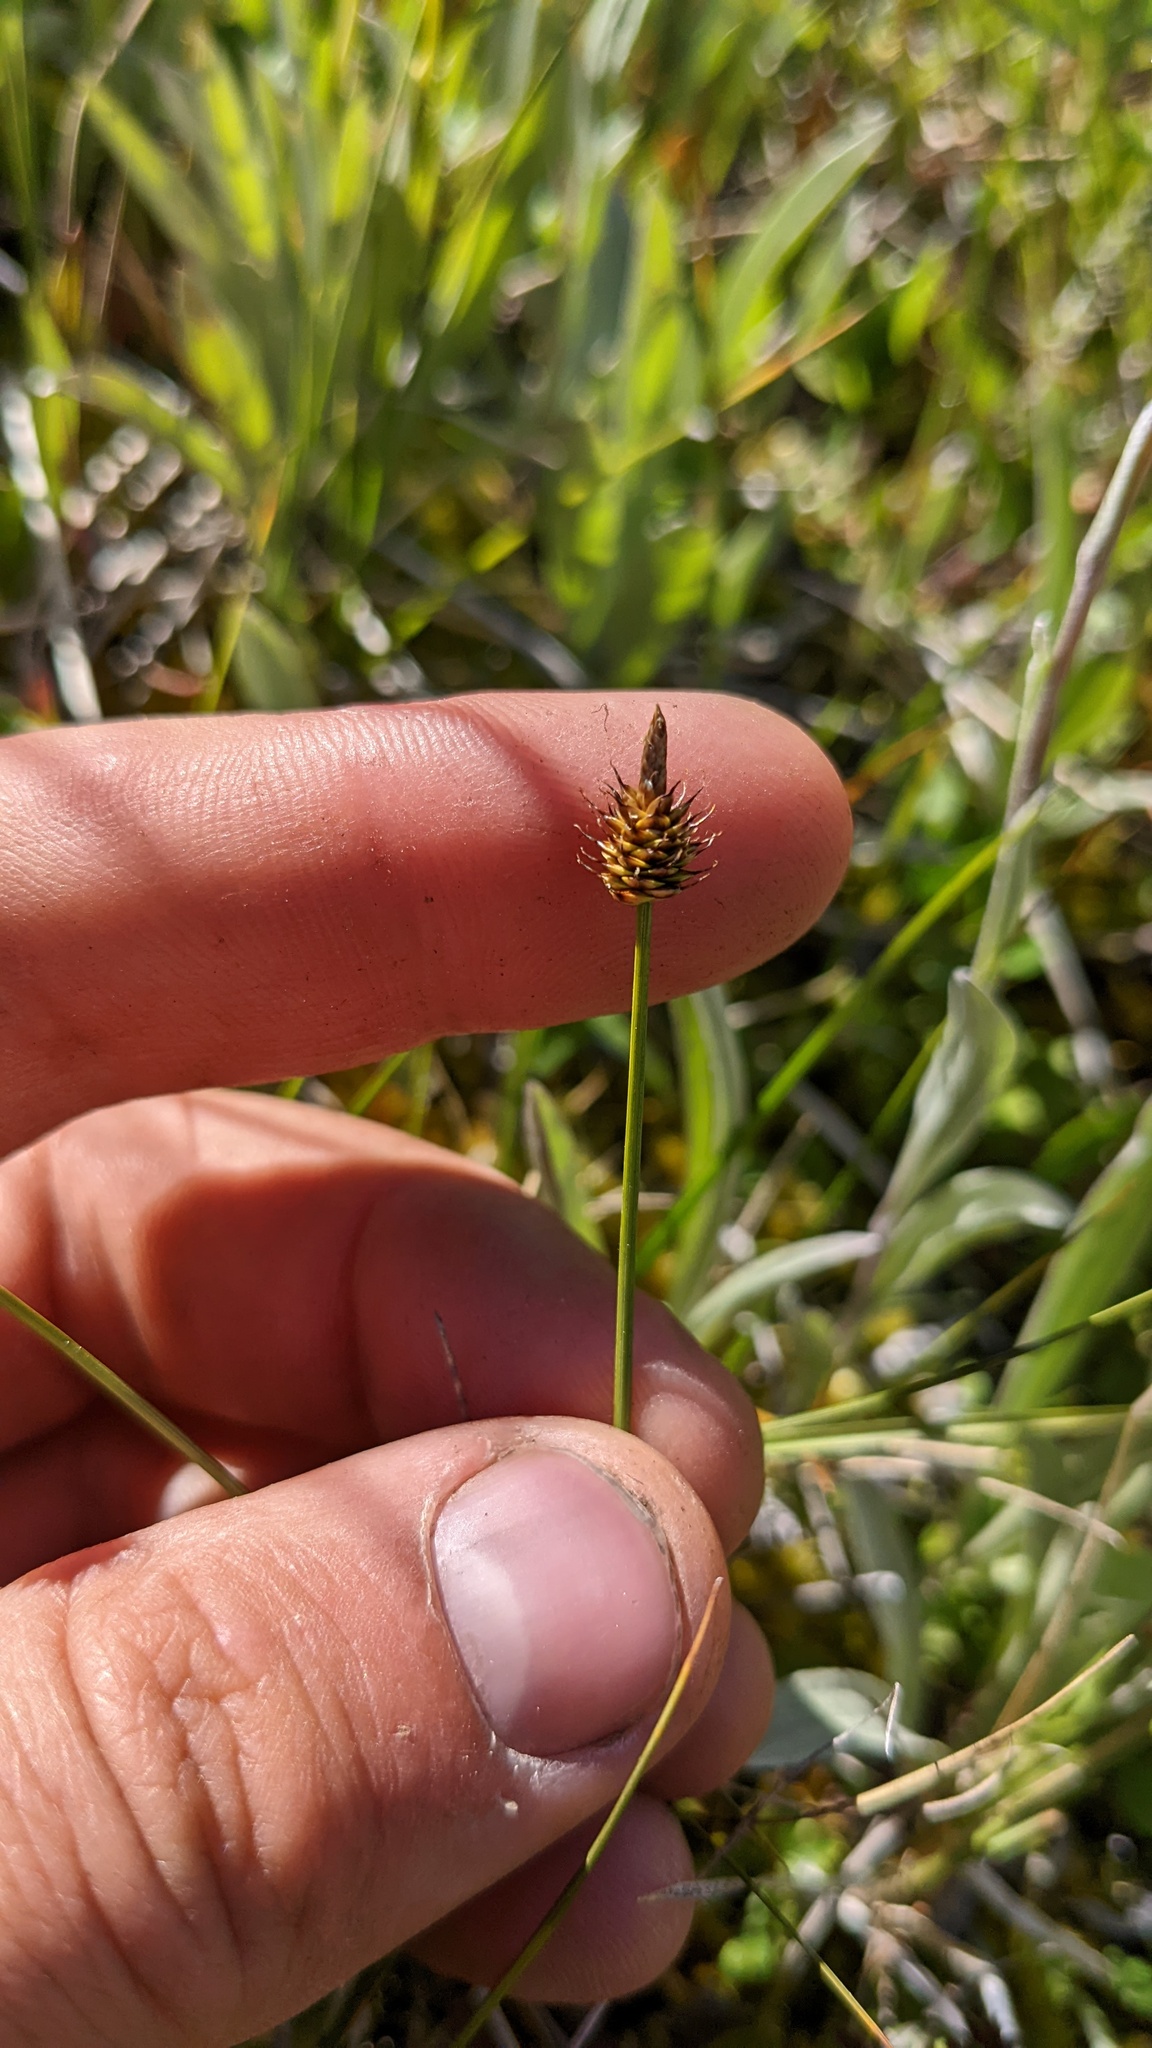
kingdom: Plantae
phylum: Tracheophyta
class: Liliopsida
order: Poales
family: Cyperaceae
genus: Carex
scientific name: Carex capitata
